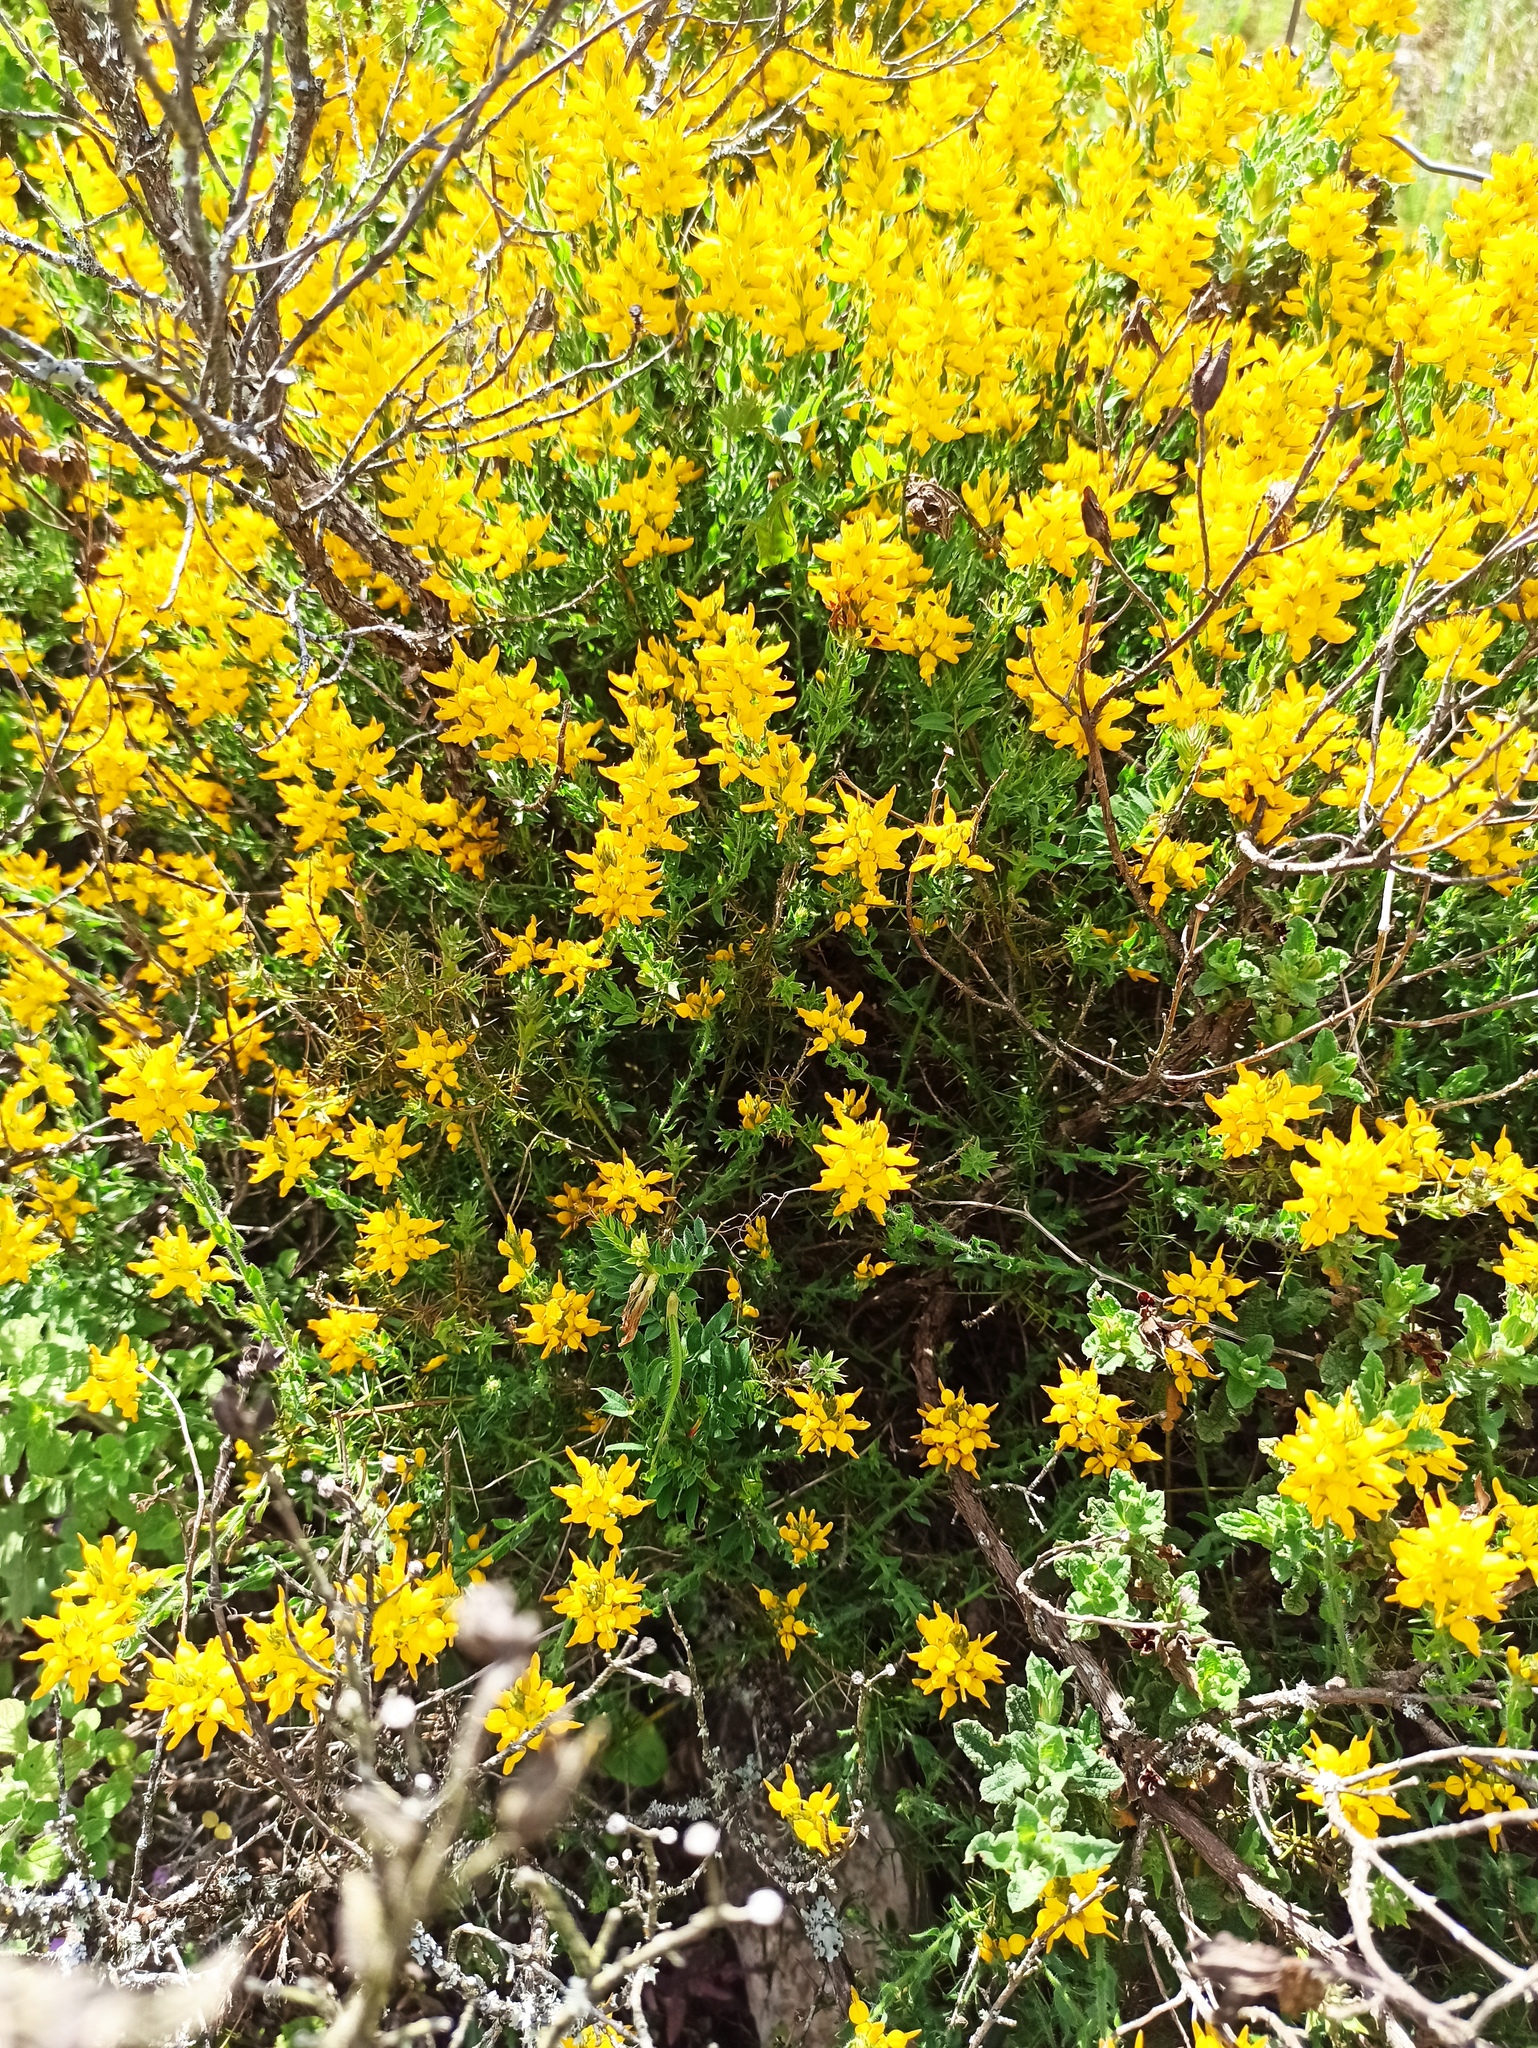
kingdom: Plantae
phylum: Tracheophyta
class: Magnoliopsida
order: Fabales
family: Fabaceae
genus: Genista
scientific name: Genista tournefortii
